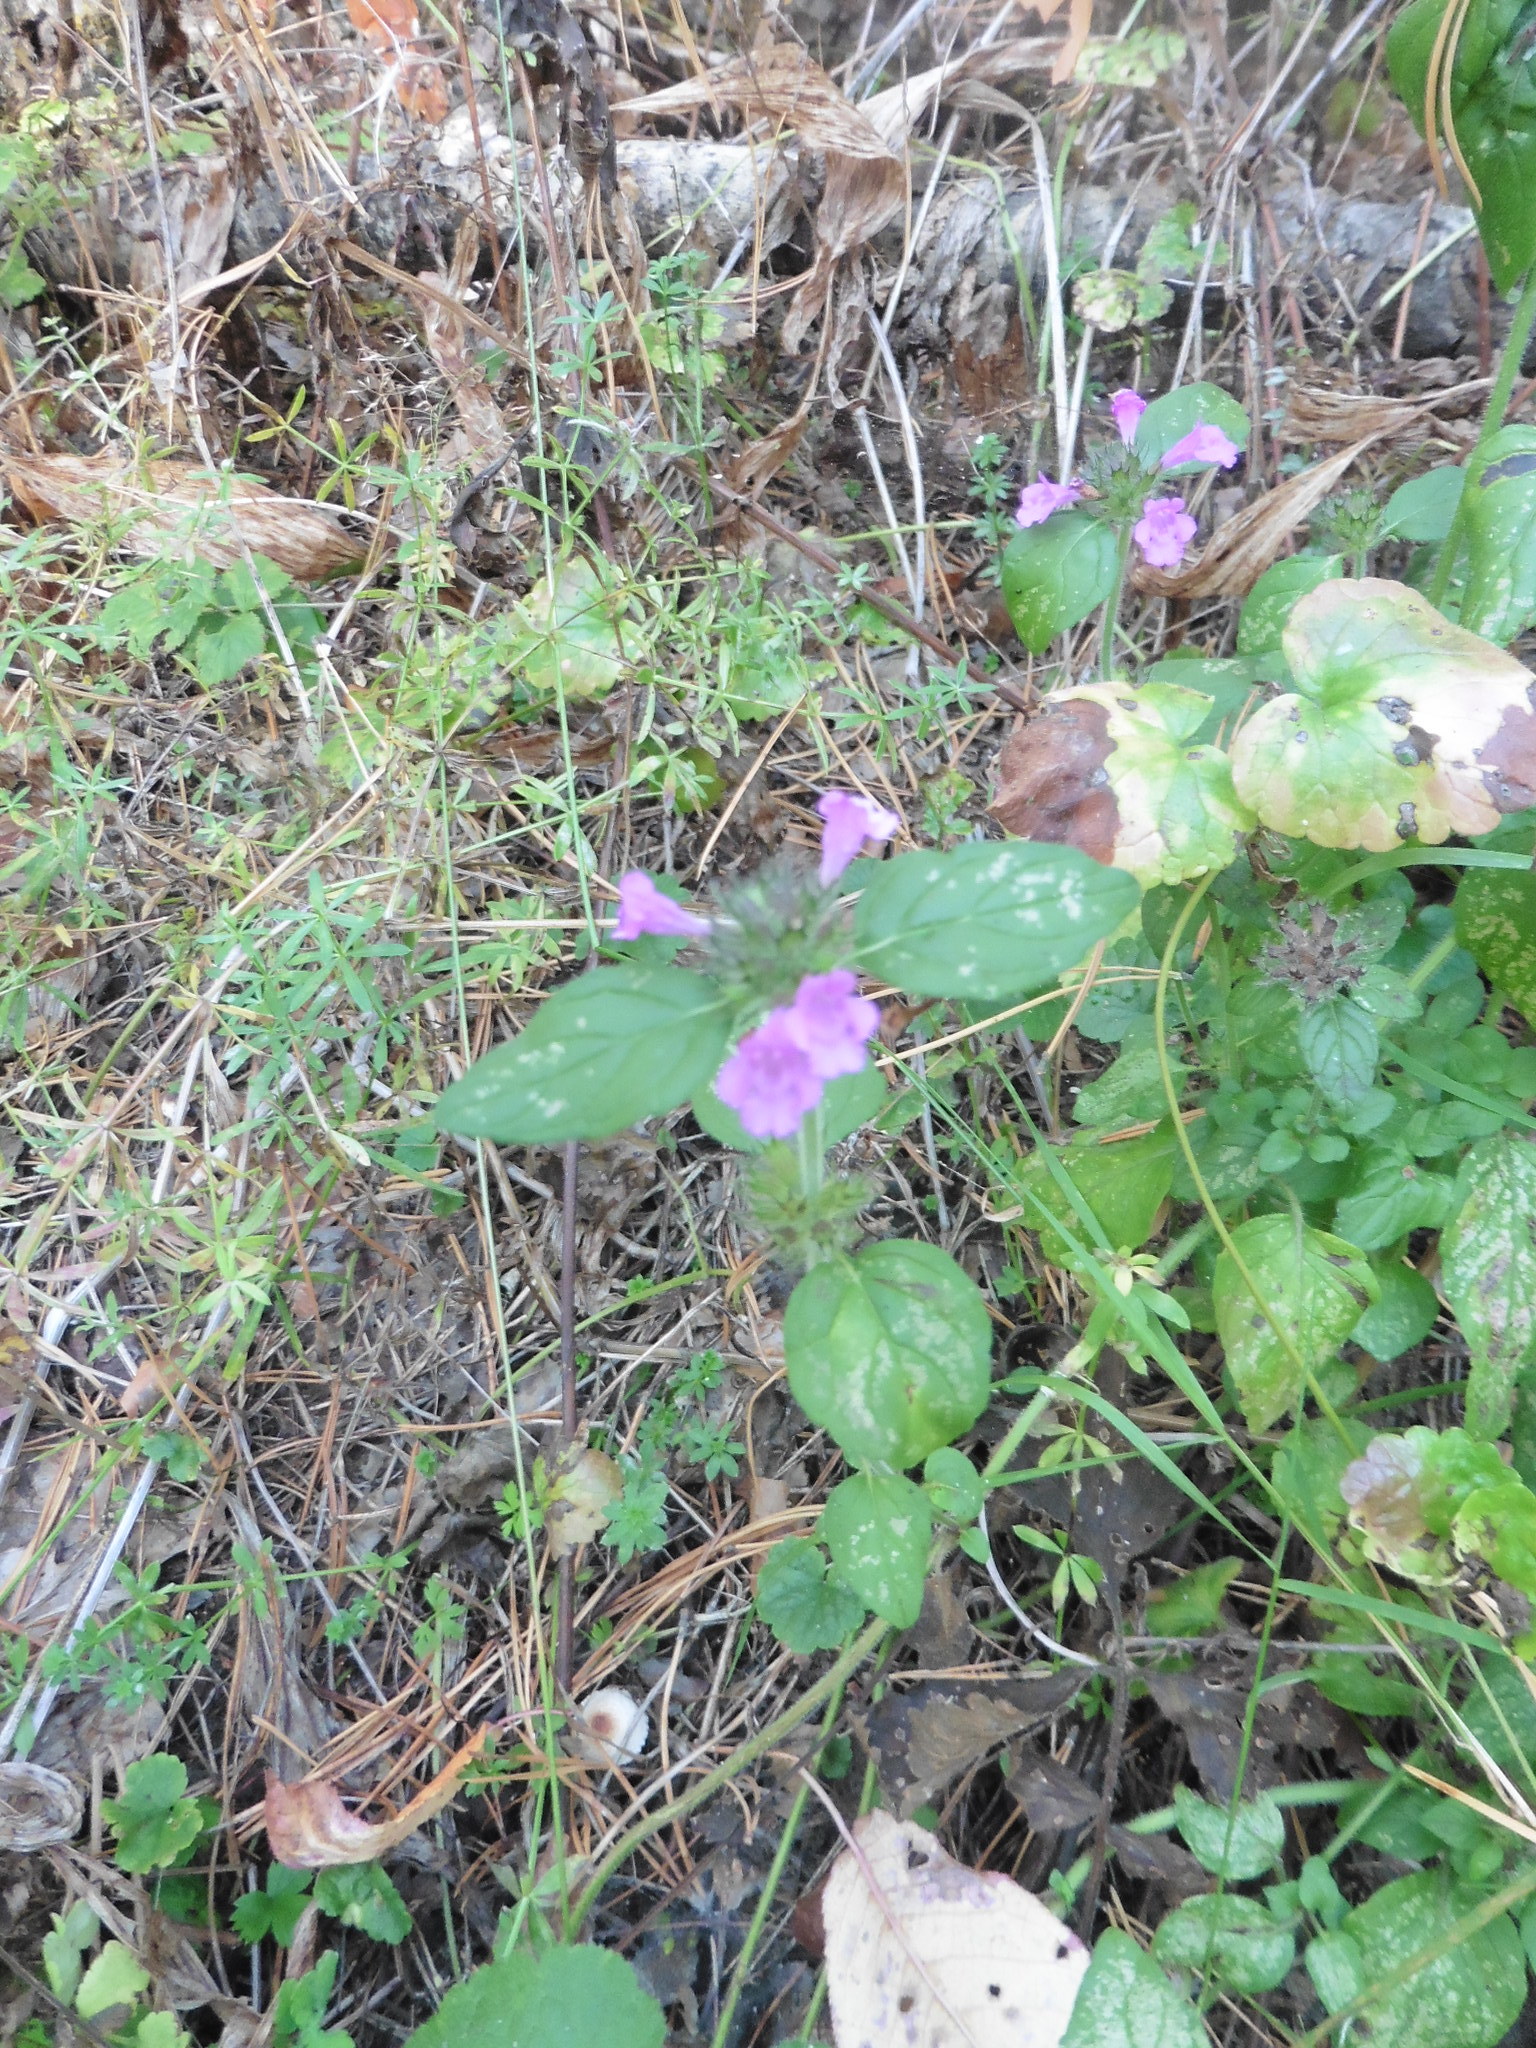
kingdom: Plantae
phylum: Tracheophyta
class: Magnoliopsida
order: Lamiales
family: Lamiaceae
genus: Clinopodium
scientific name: Clinopodium vulgare
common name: Wild basil
